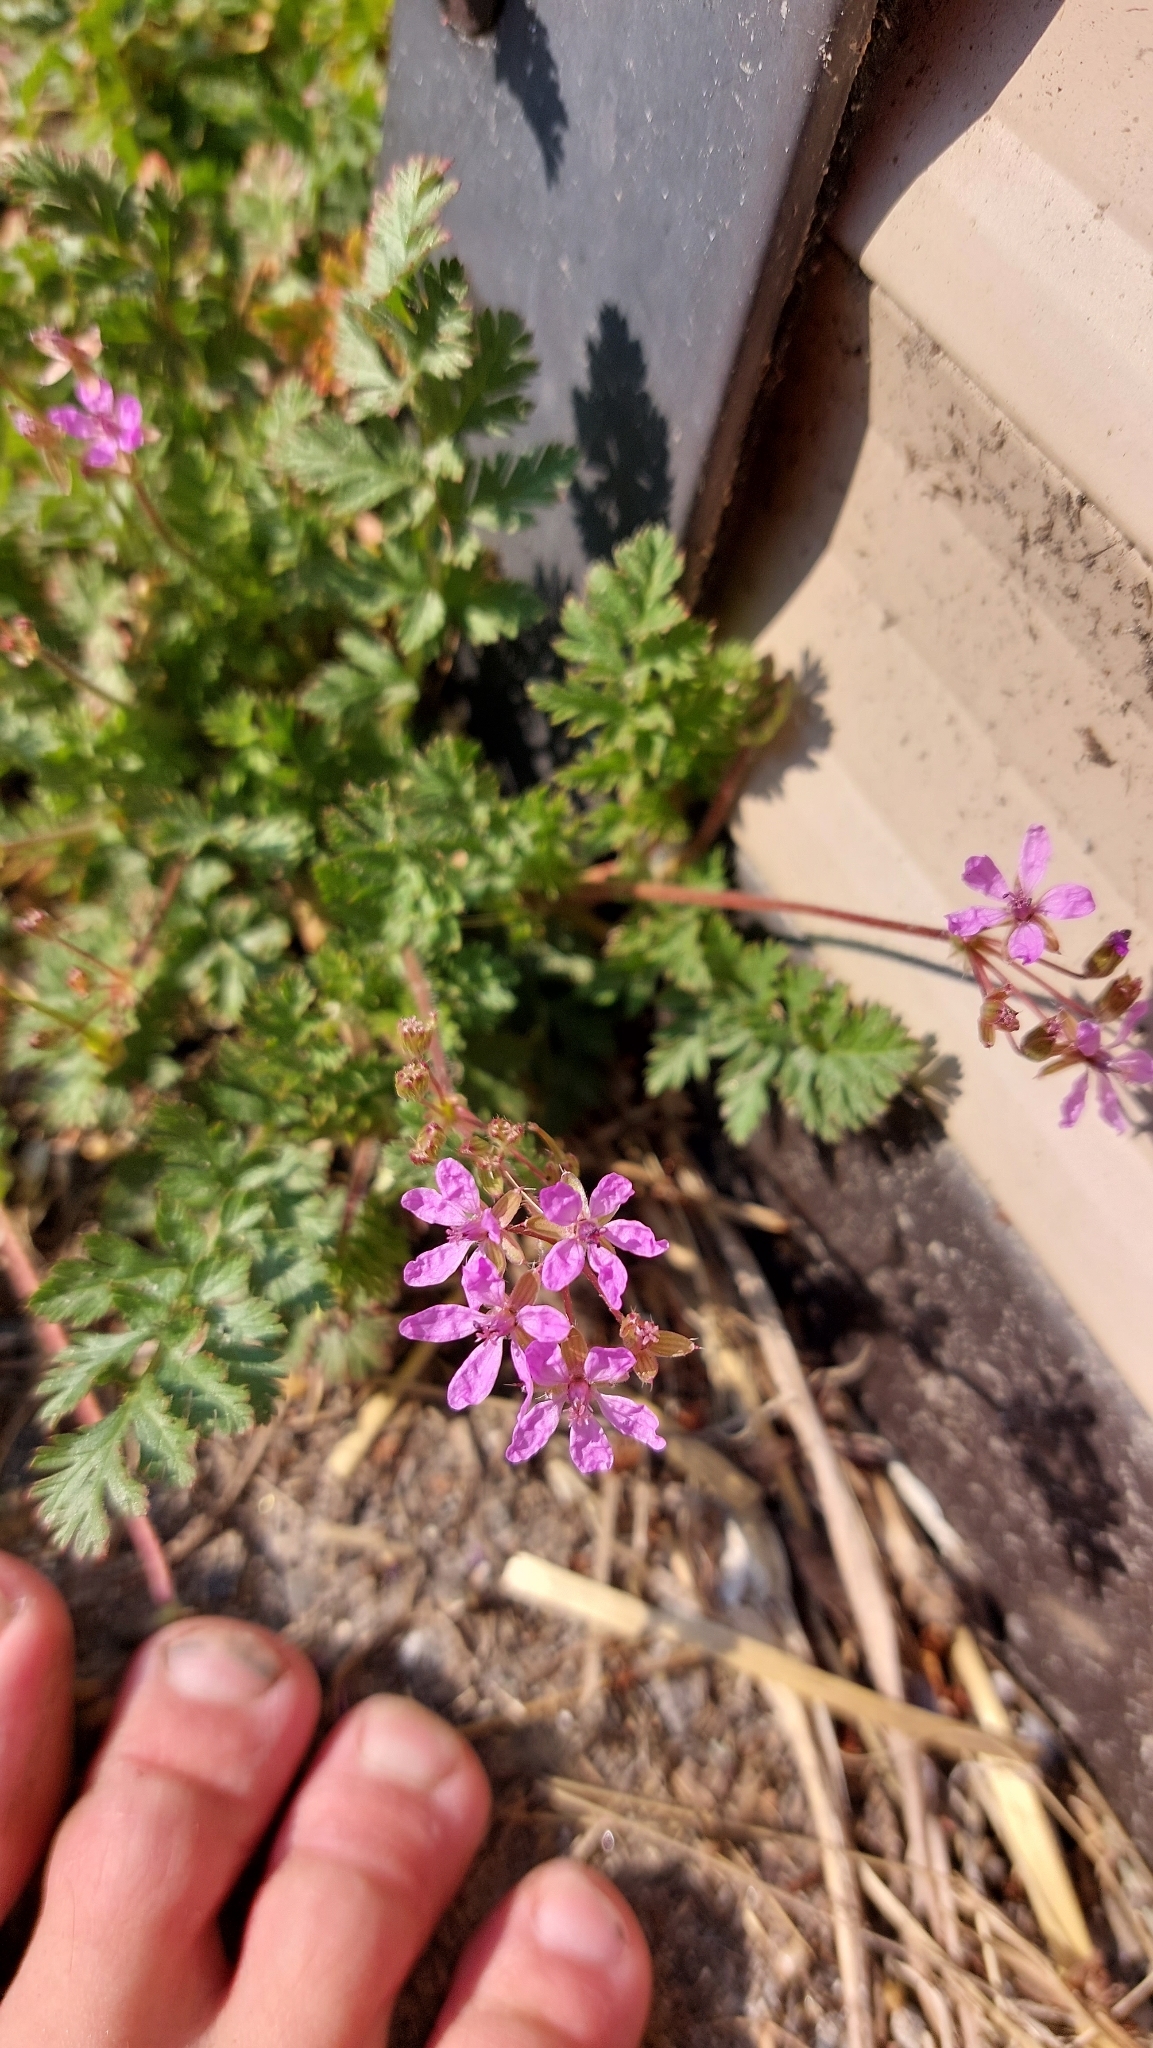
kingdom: Plantae
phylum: Tracheophyta
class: Magnoliopsida
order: Geraniales
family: Geraniaceae
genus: Erodium
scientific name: Erodium cicutarium
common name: Common stork's-bill
